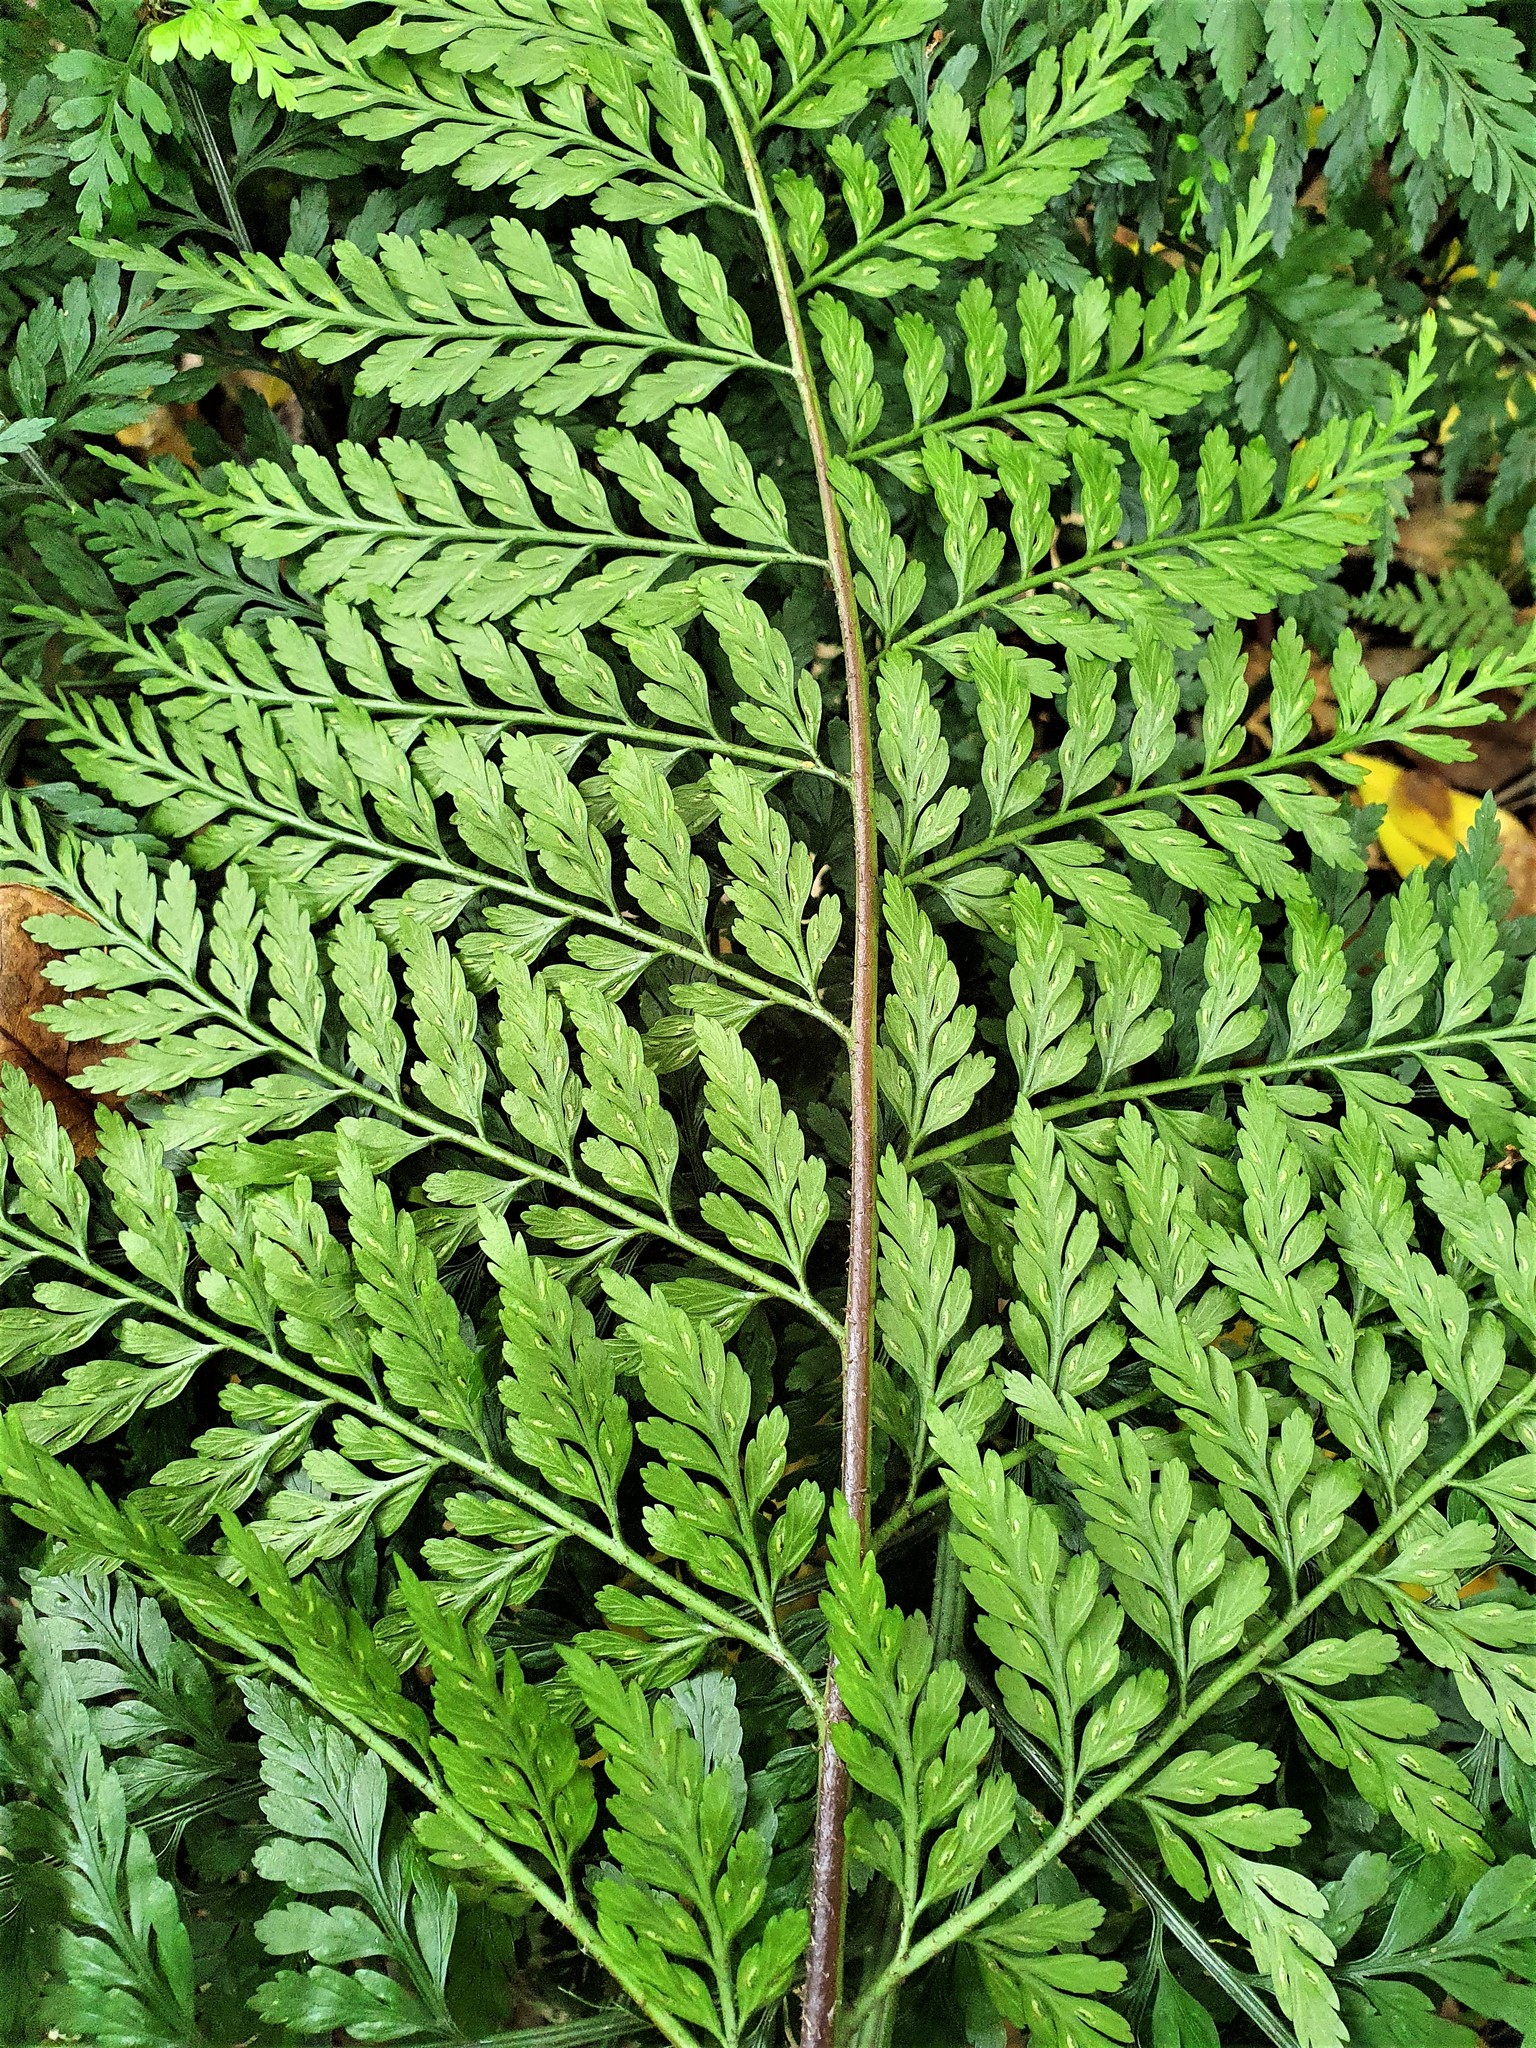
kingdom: Plantae
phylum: Tracheophyta
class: Polypodiopsida
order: Polypodiales
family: Aspleniaceae
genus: Asplenium
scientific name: Asplenium
